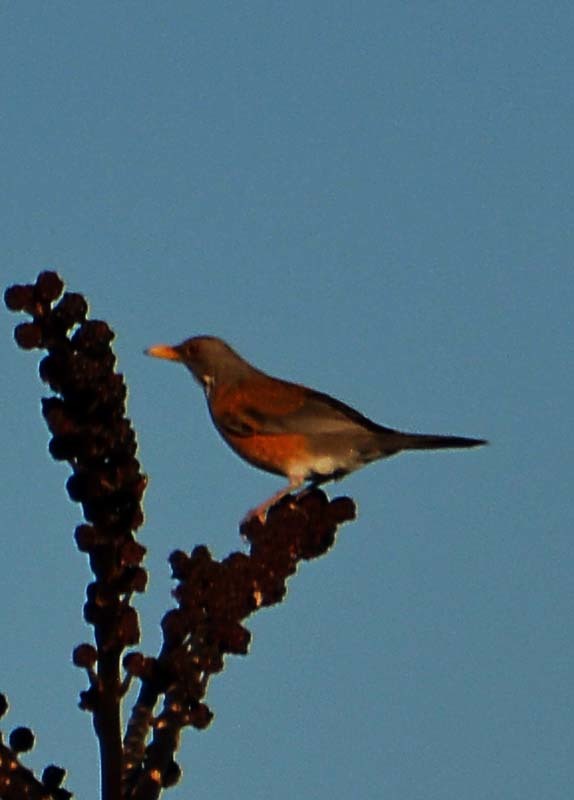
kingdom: Animalia
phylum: Chordata
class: Aves
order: Passeriformes
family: Turdidae
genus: Turdus
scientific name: Turdus rufopalliatus
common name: Rufous-backed robin
